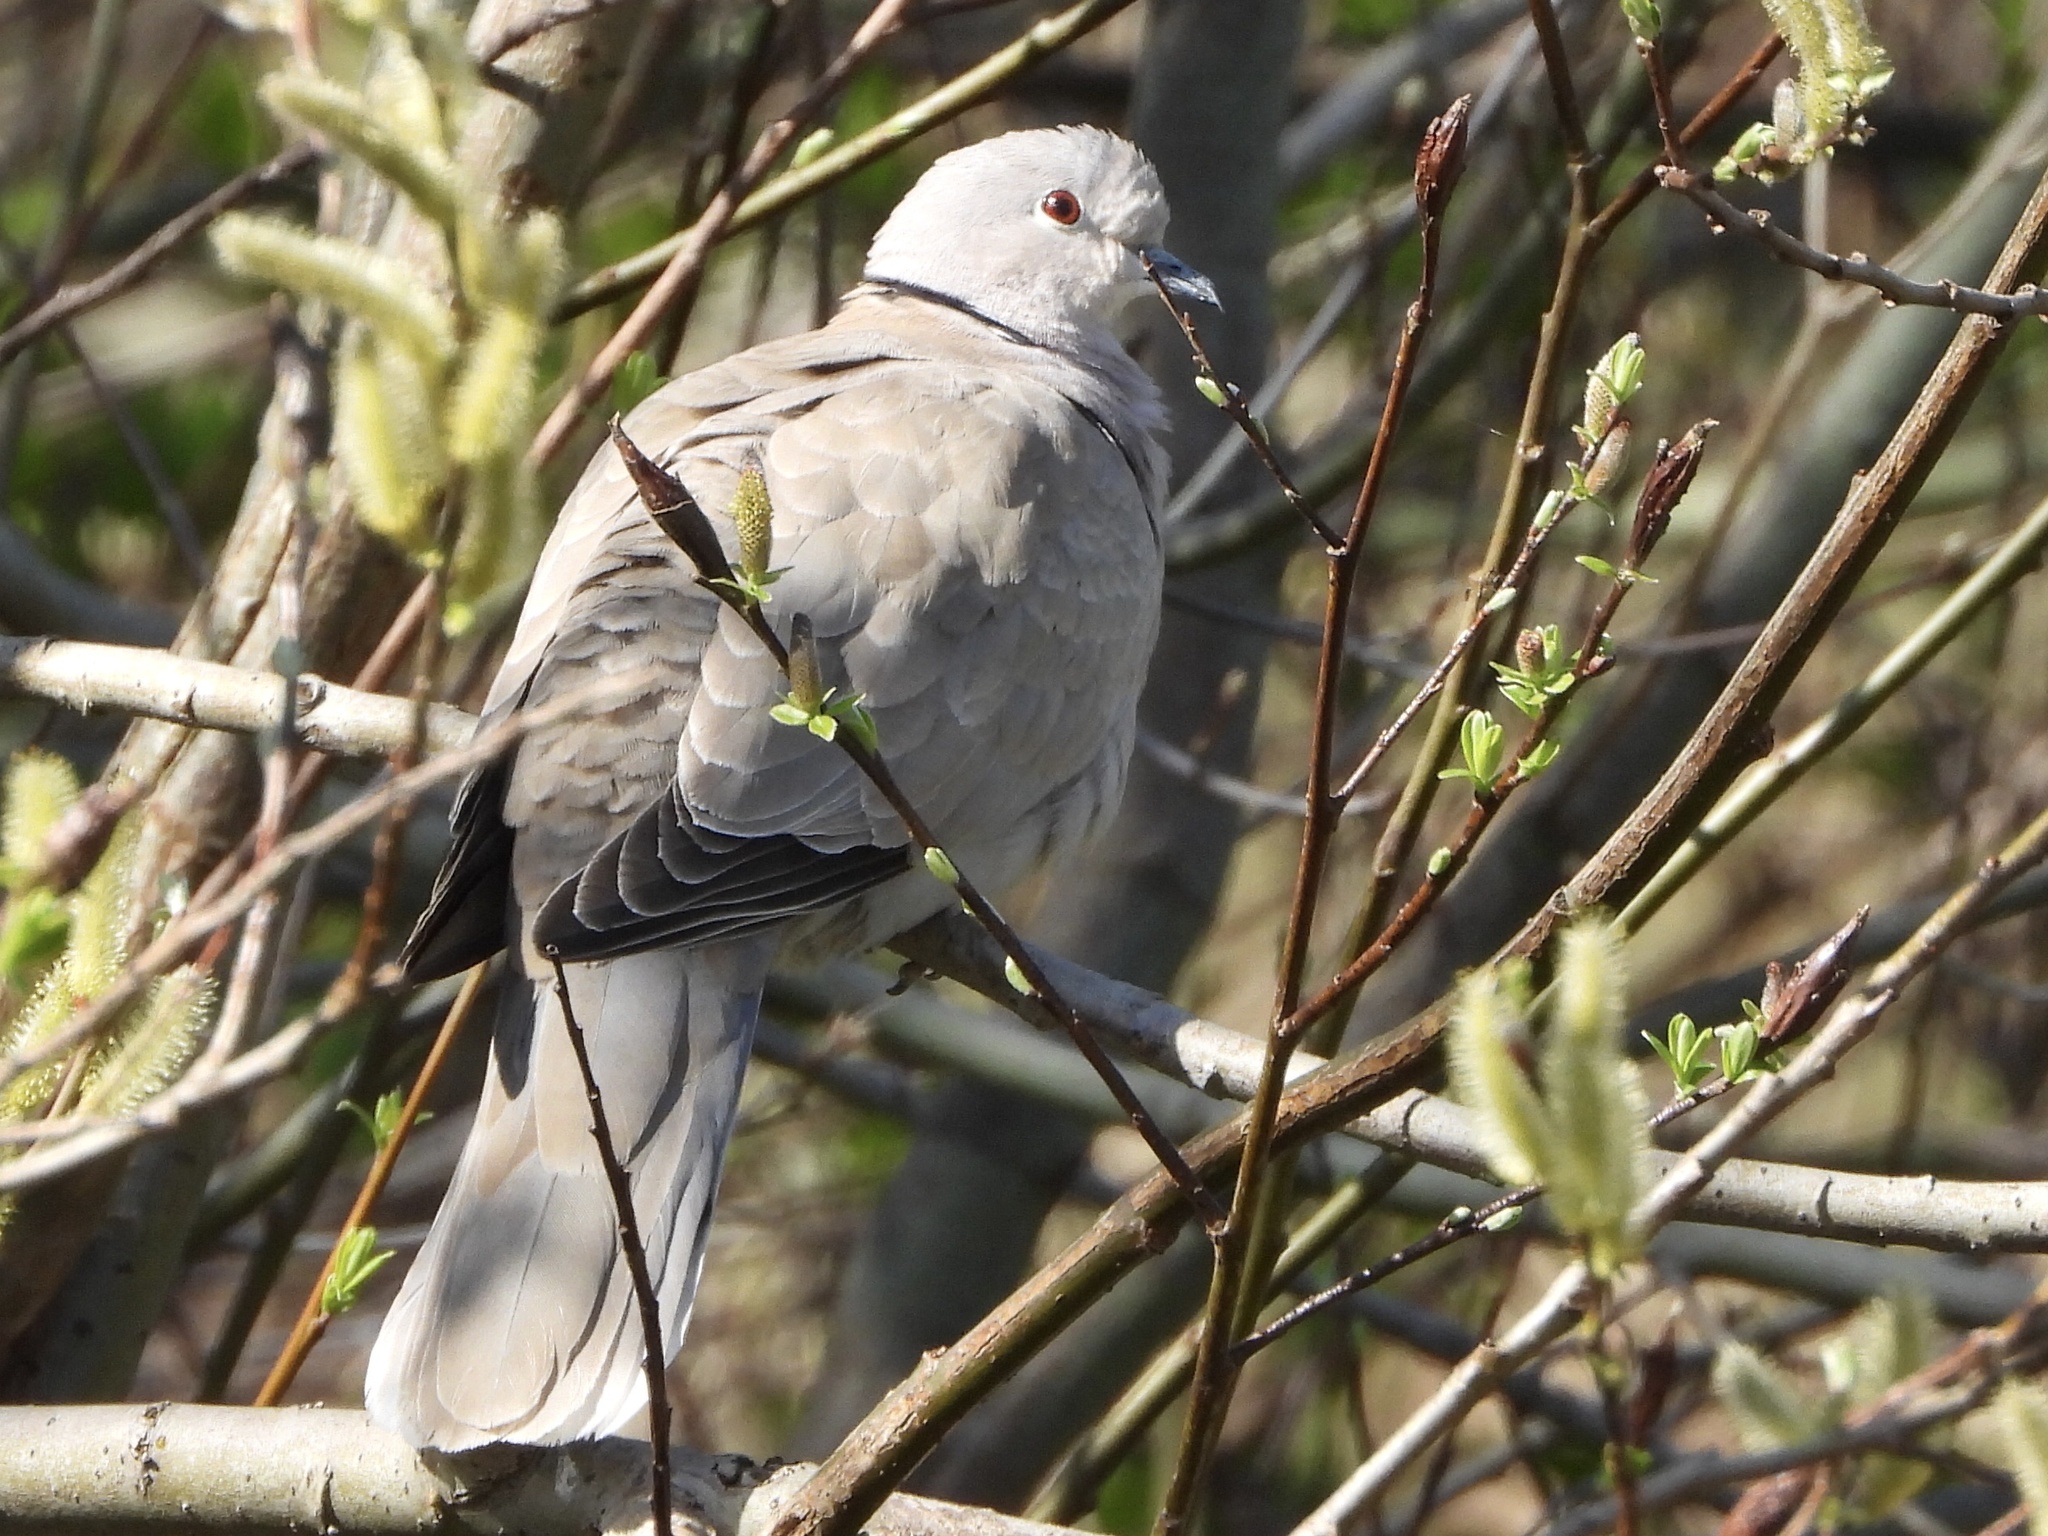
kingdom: Animalia
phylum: Chordata
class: Aves
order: Columbiformes
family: Columbidae
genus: Streptopelia
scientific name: Streptopelia decaocto
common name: Eurasian collared dove
